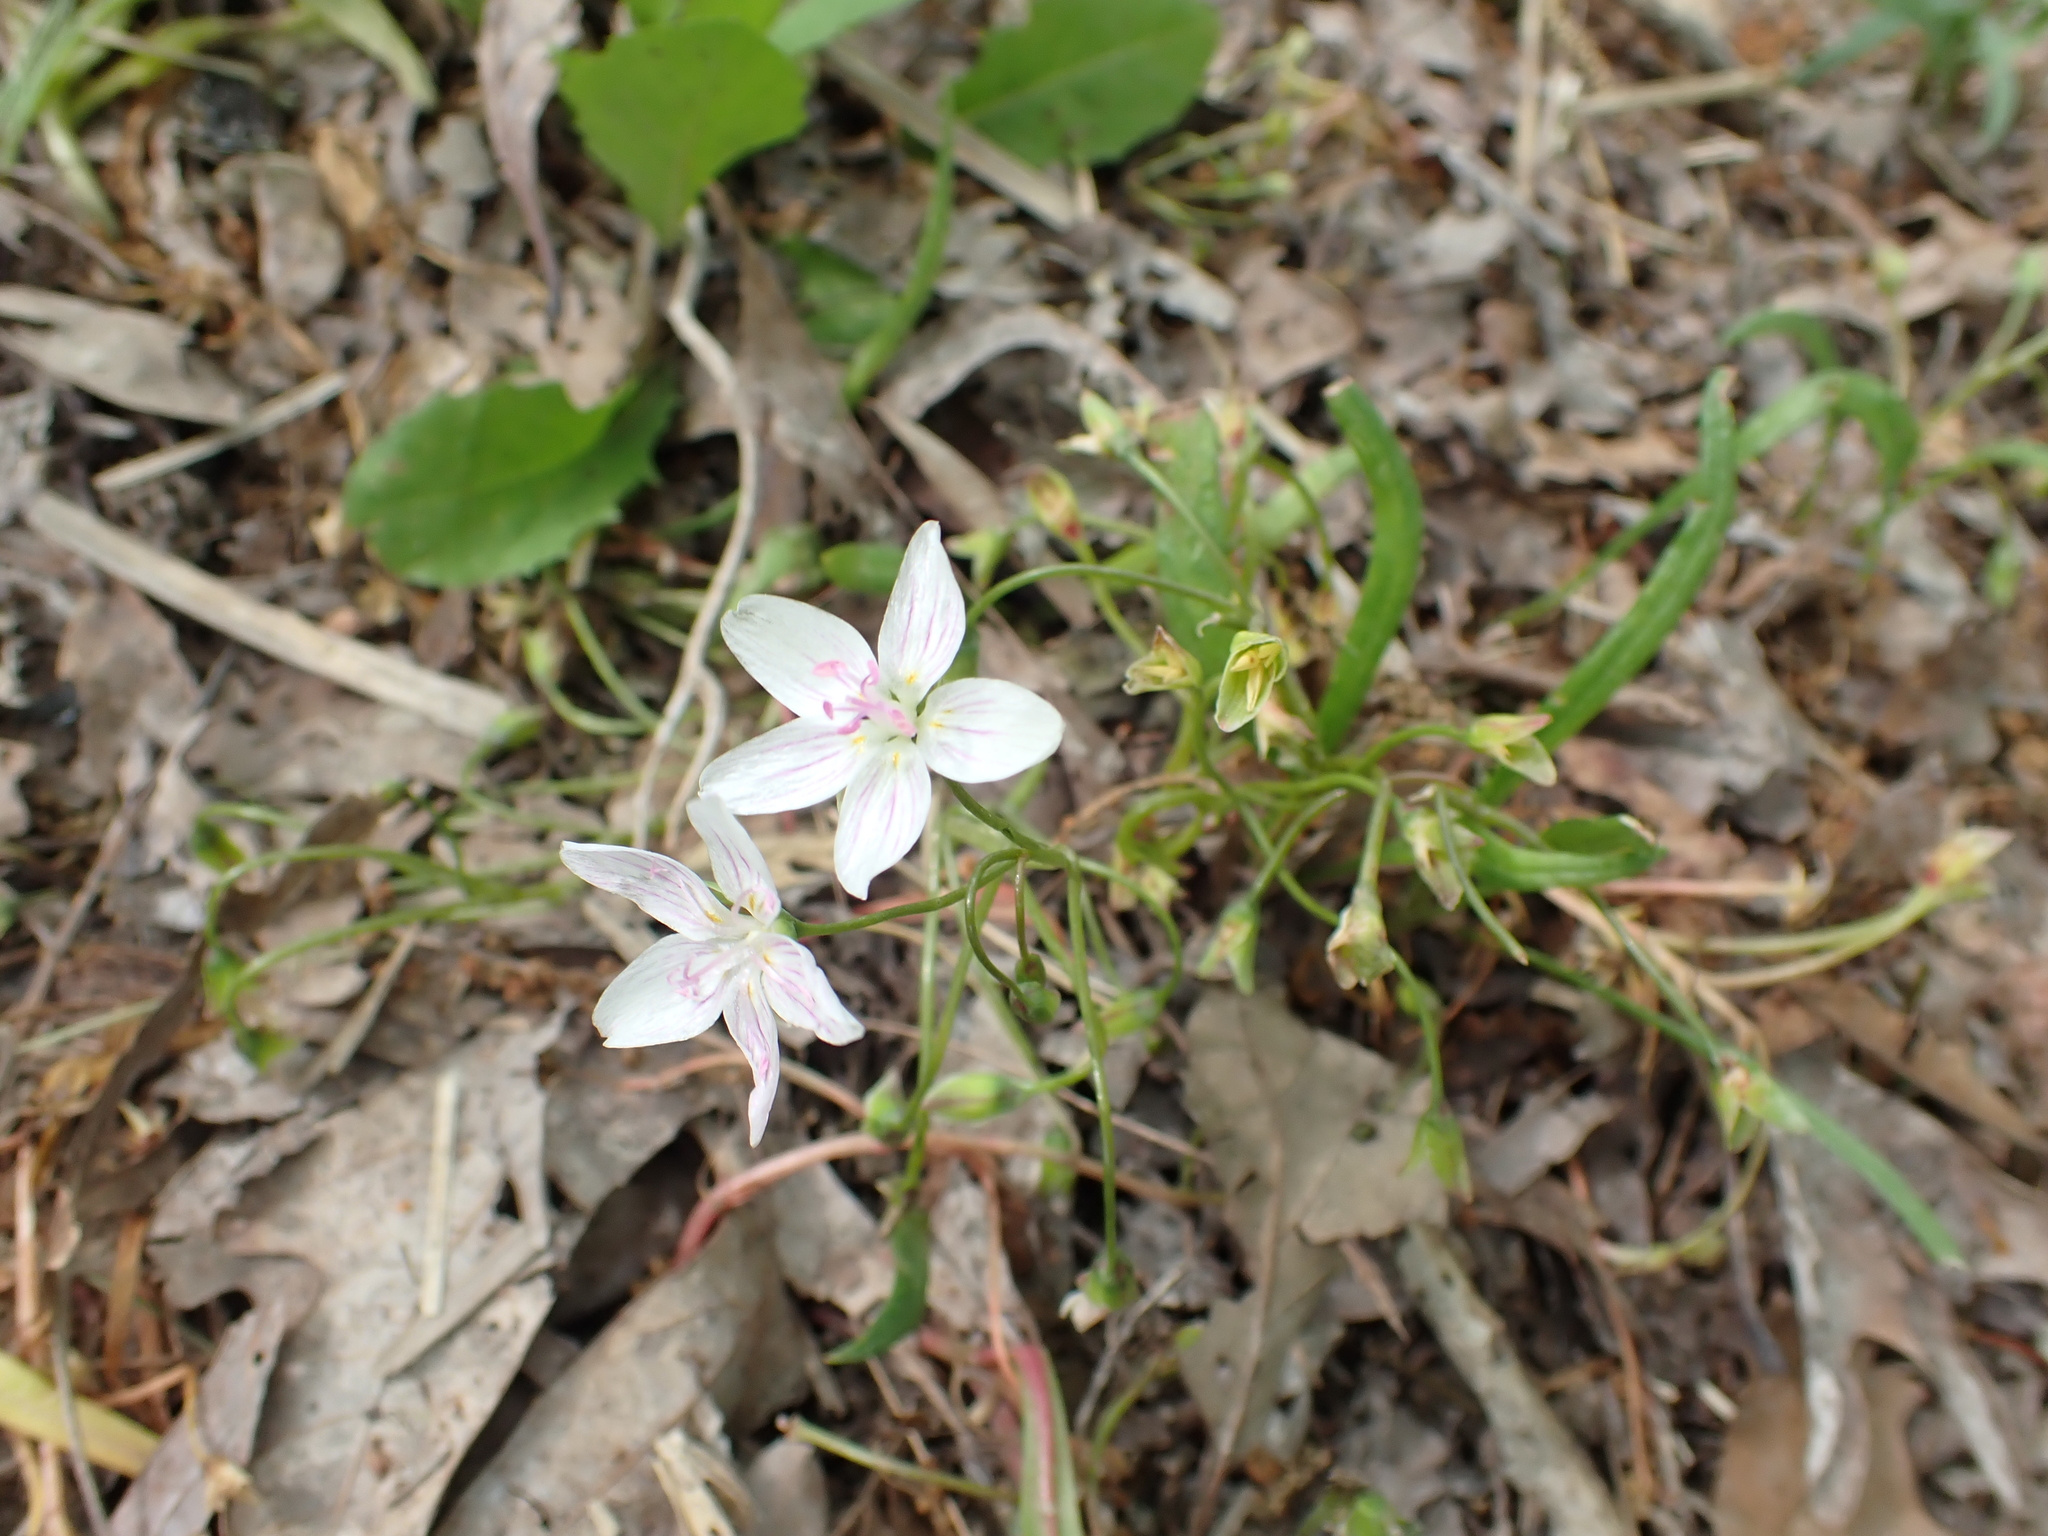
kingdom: Plantae
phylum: Tracheophyta
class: Magnoliopsida
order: Caryophyllales
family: Montiaceae
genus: Claytonia
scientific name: Claytonia virginica
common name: Virginia springbeauty
